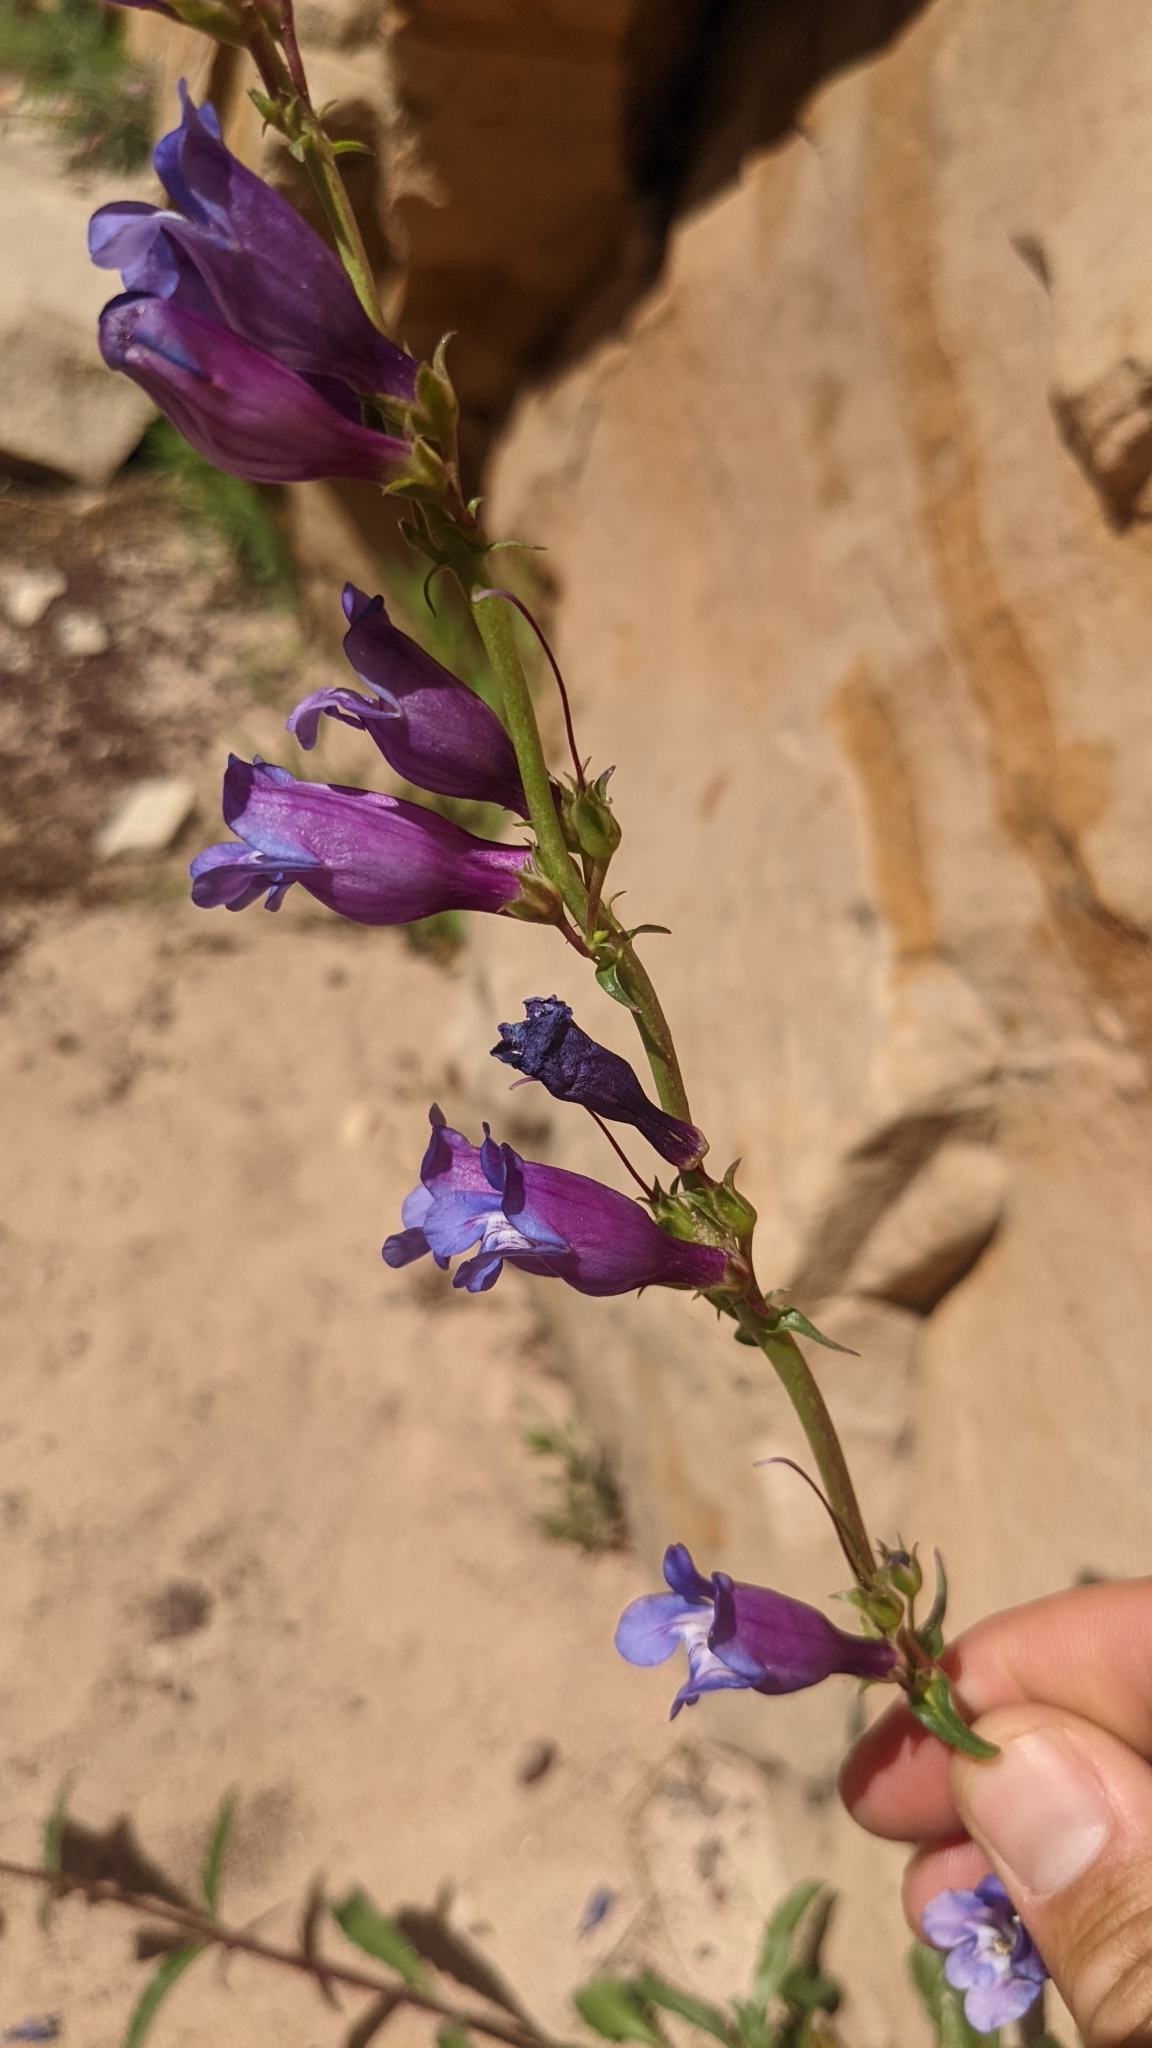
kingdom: Plantae
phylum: Tracheophyta
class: Magnoliopsida
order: Lamiales
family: Plantaginaceae
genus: Penstemon
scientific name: Penstemon laevis
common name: Smooth penstemon
